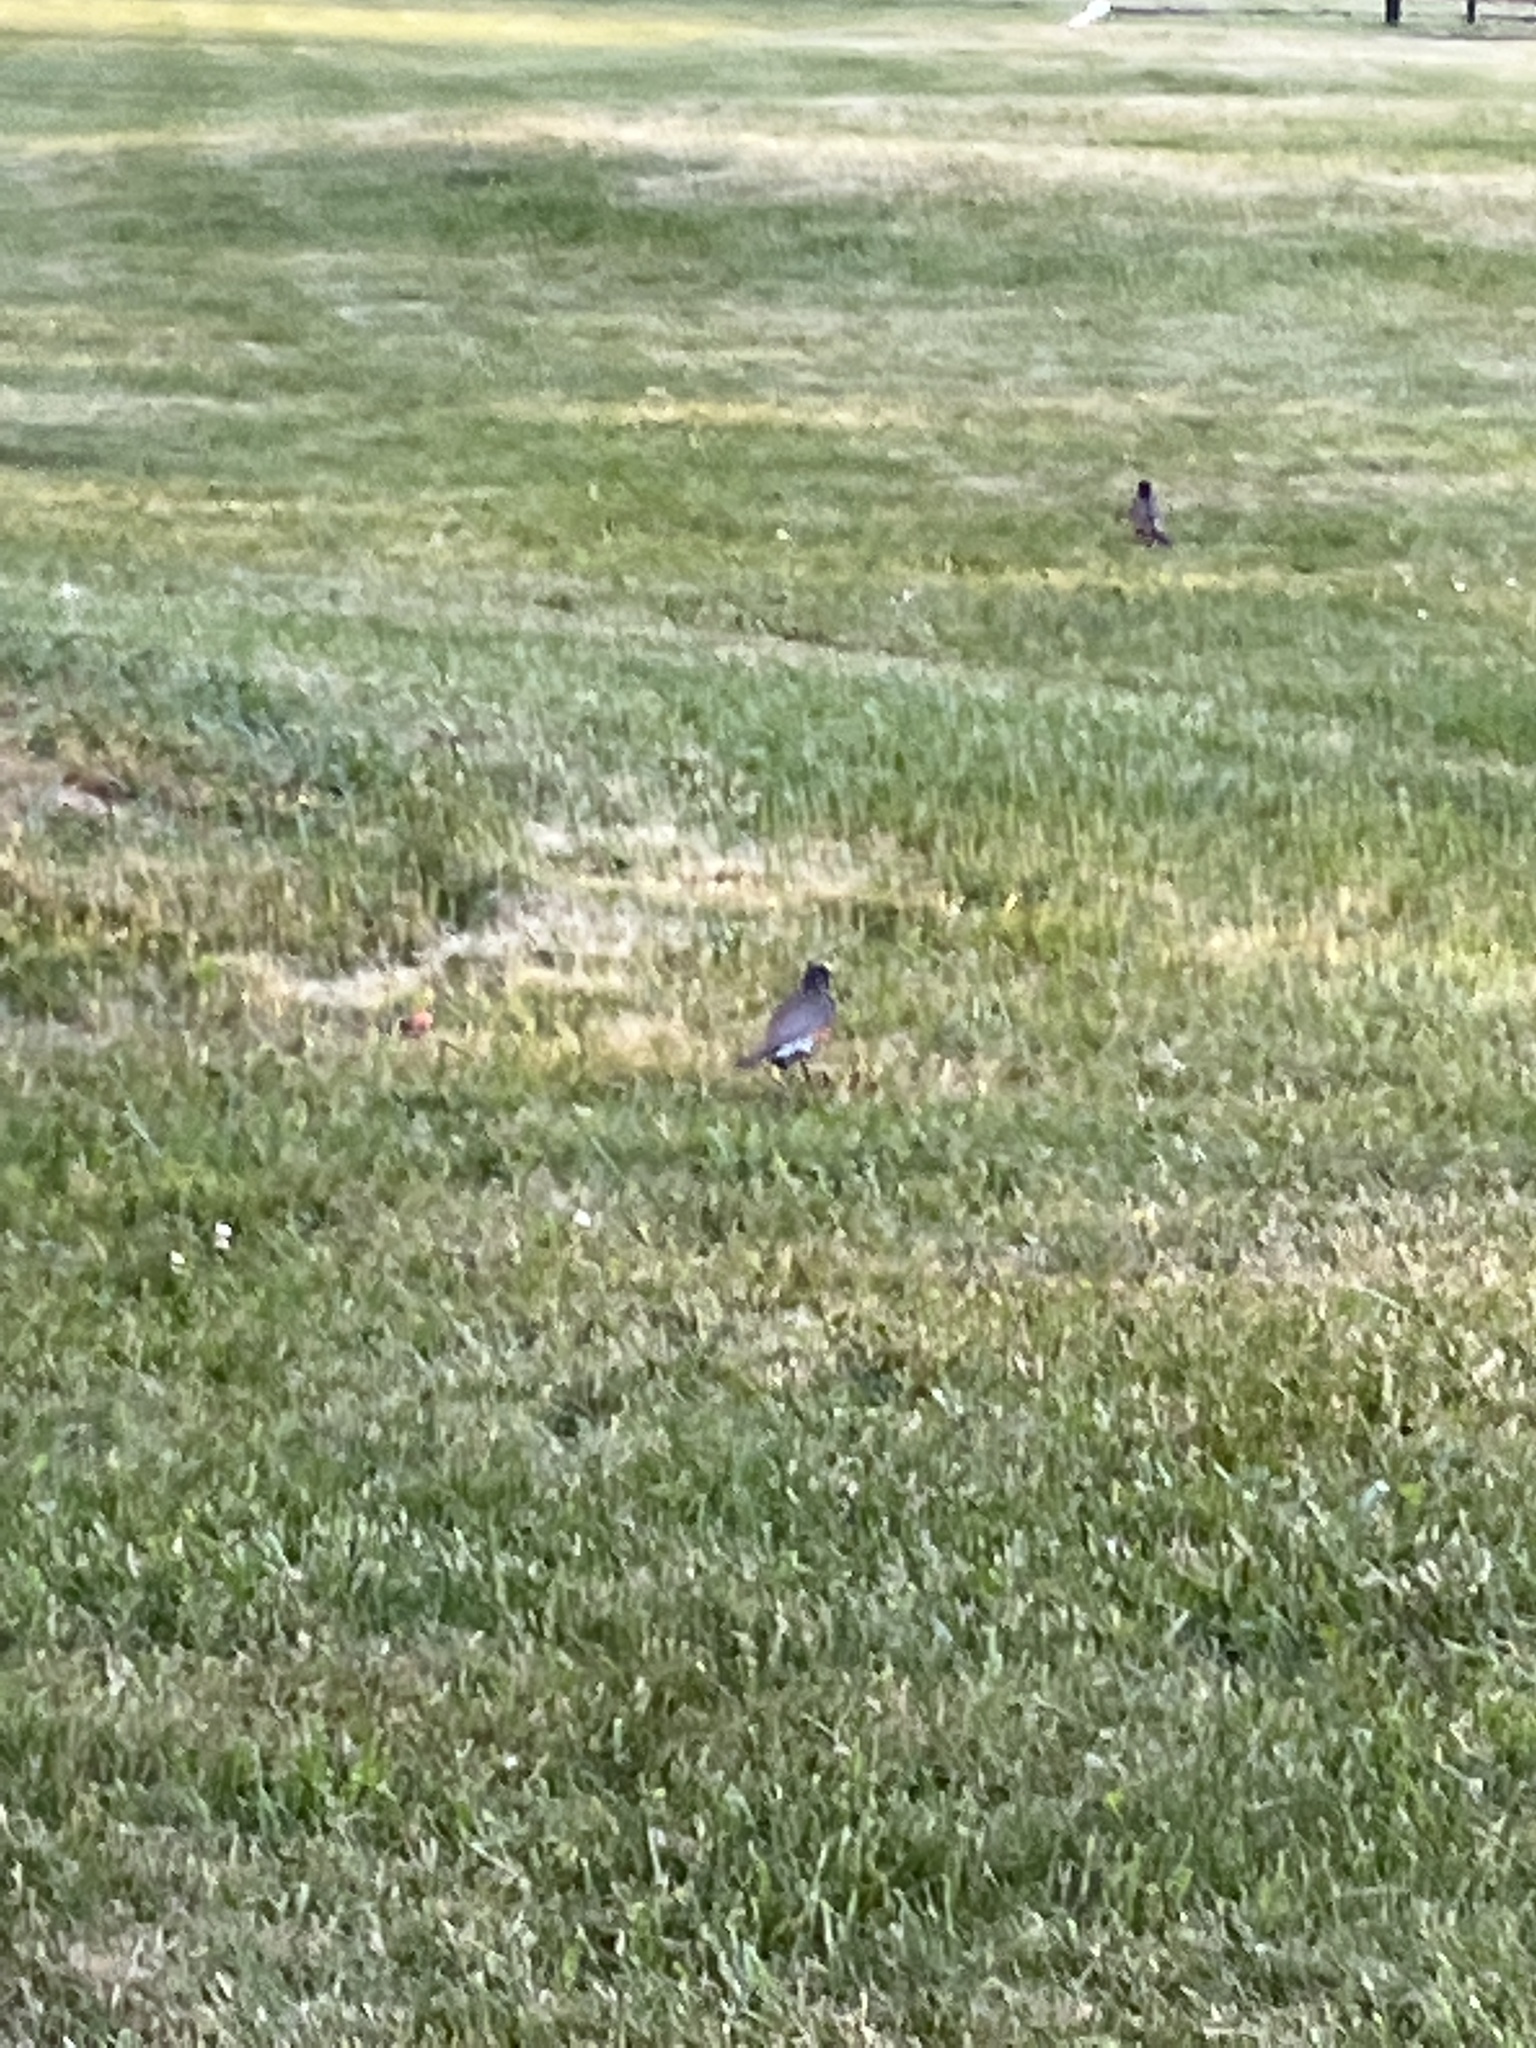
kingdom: Animalia
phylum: Chordata
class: Aves
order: Passeriformes
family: Turdidae
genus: Turdus
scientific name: Turdus migratorius
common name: American robin
